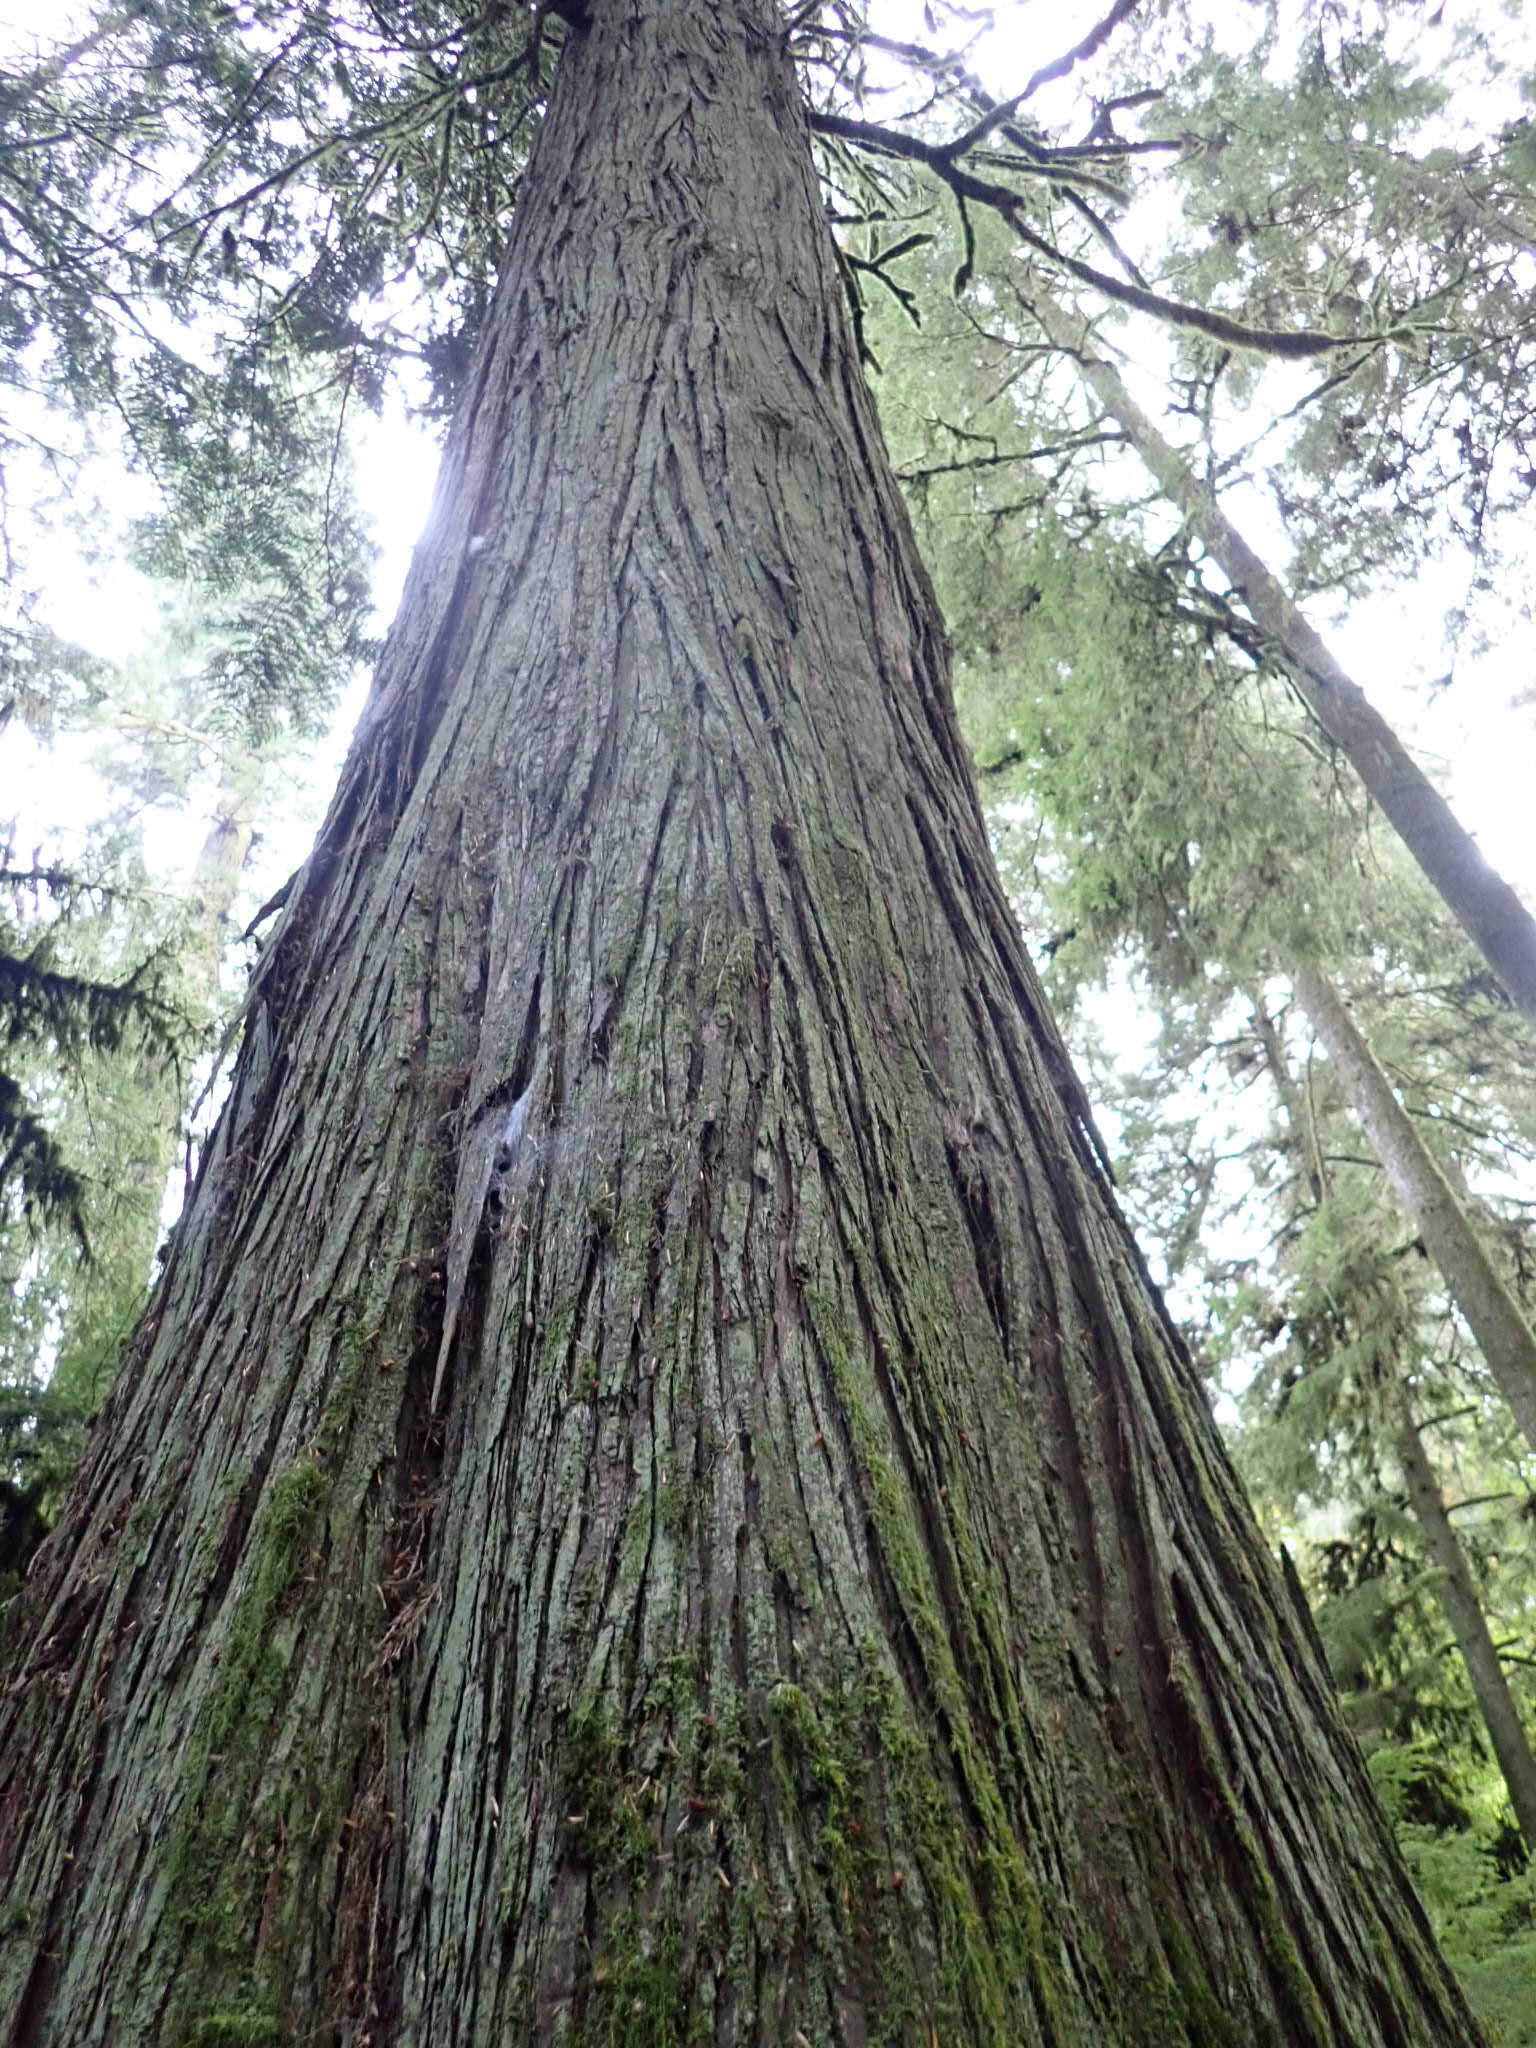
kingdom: Plantae
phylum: Tracheophyta
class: Pinopsida
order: Pinales
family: Cupressaceae
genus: Thuja
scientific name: Thuja plicata
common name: Western red-cedar
